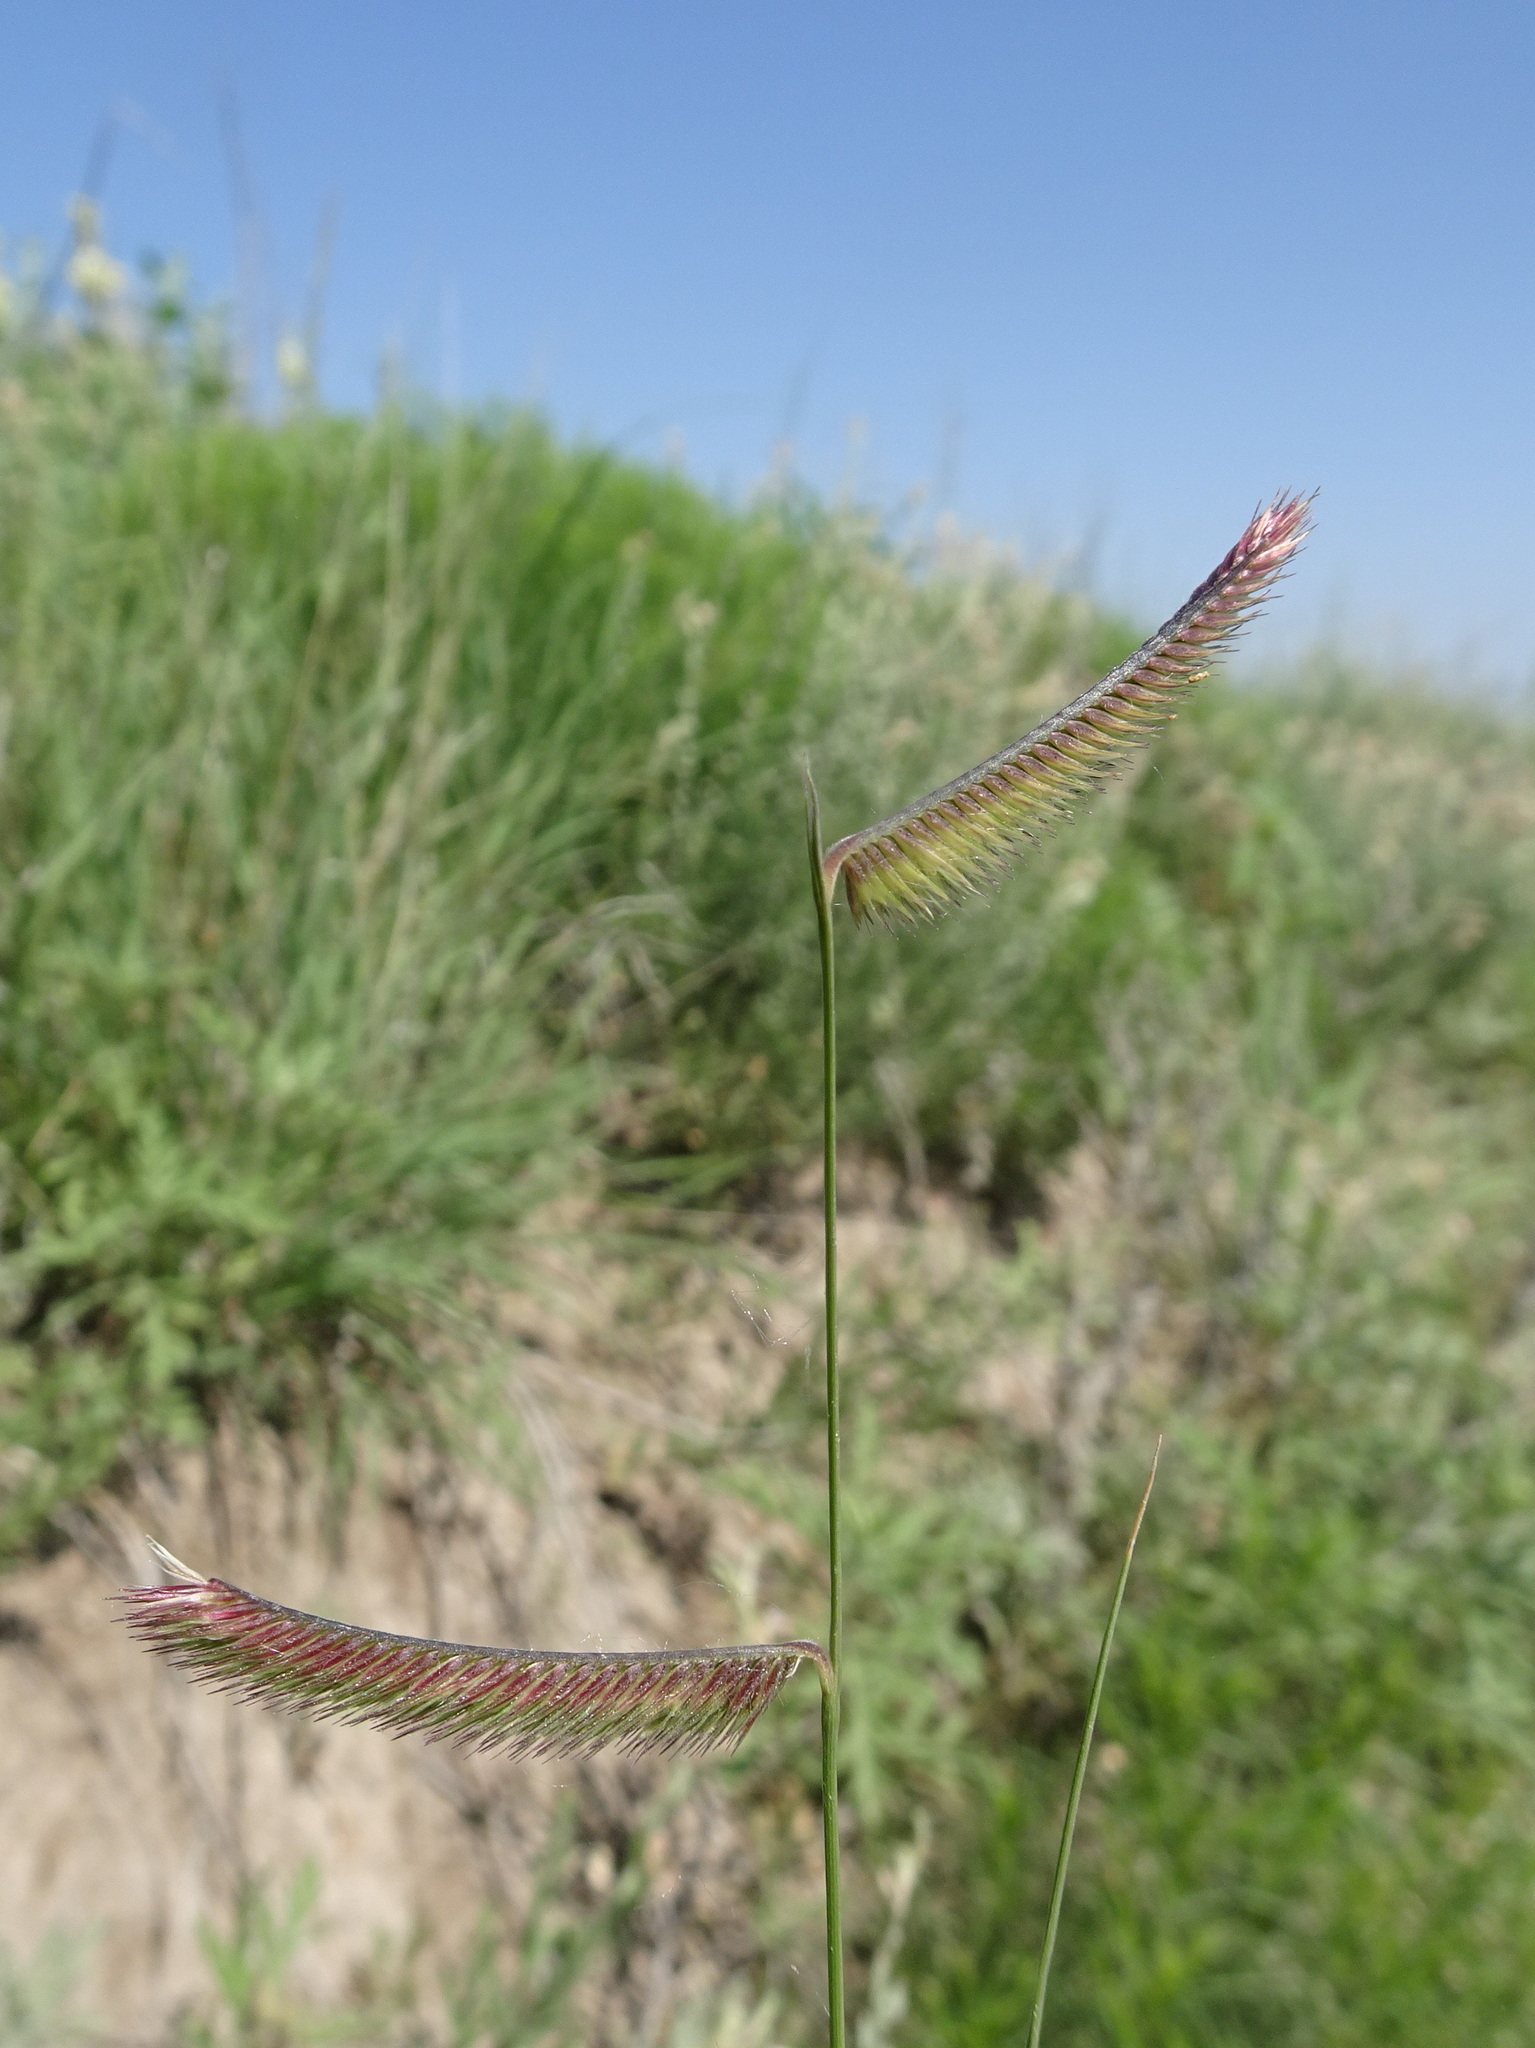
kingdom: Plantae
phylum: Tracheophyta
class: Liliopsida
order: Poales
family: Poaceae
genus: Bouteloua
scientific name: Bouteloua gracilis
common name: Blue grama
